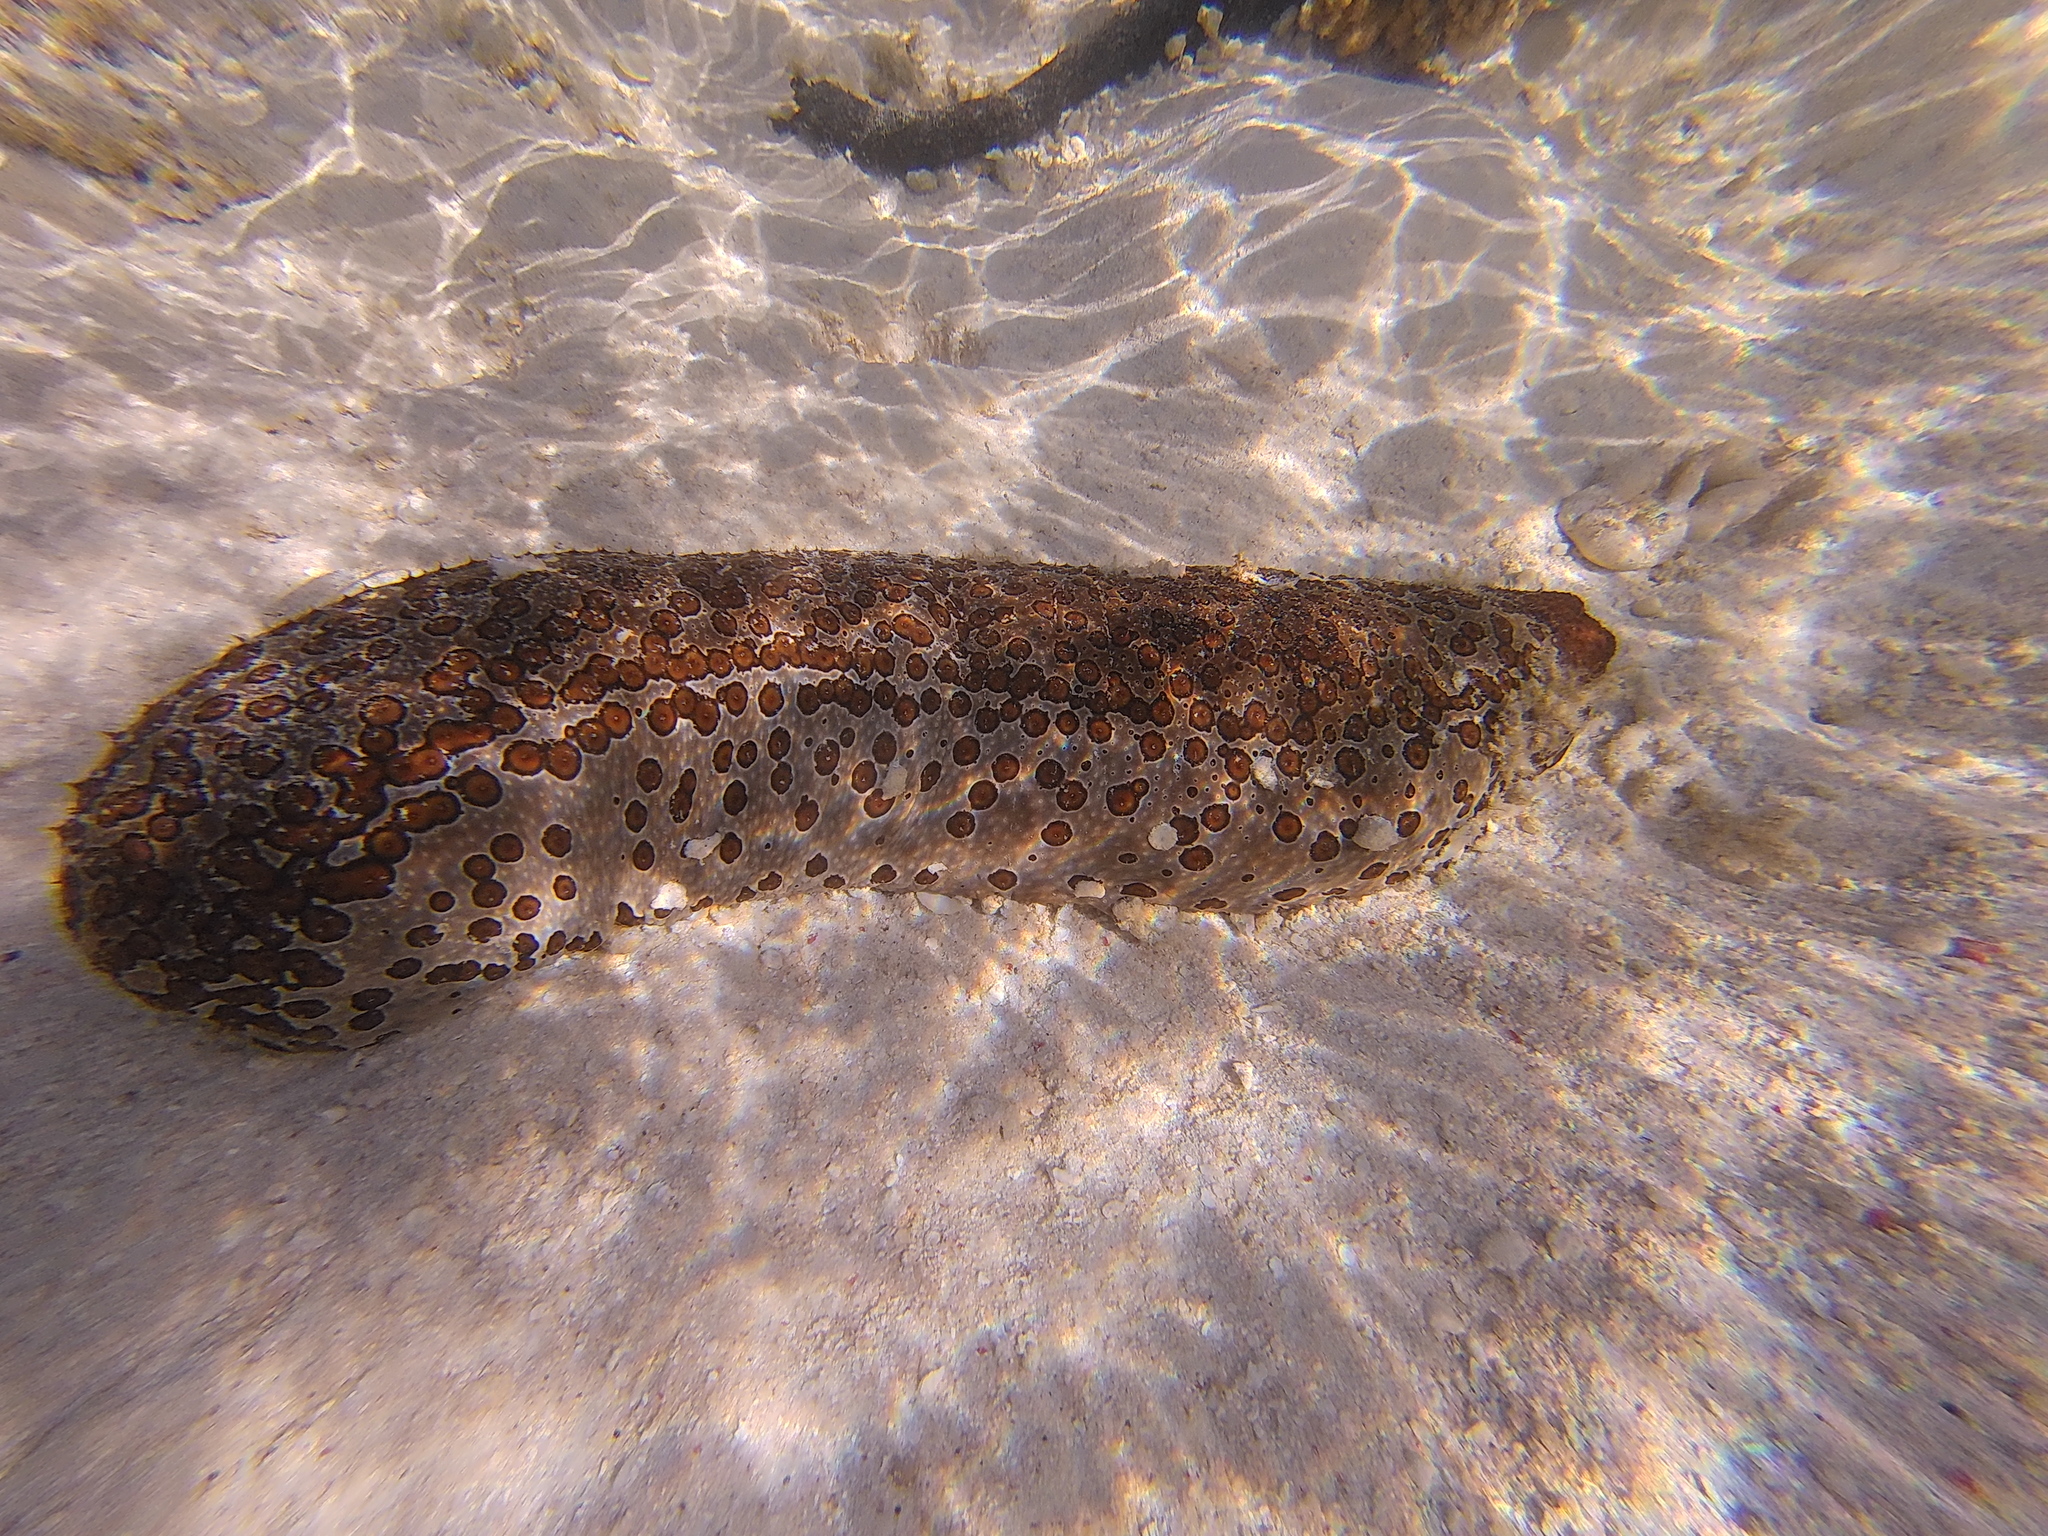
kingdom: Animalia
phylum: Echinodermata
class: Holothuroidea
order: Holothuriida
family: Holothuriidae
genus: Bohadschia
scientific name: Bohadschia argus
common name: Leopardfish
